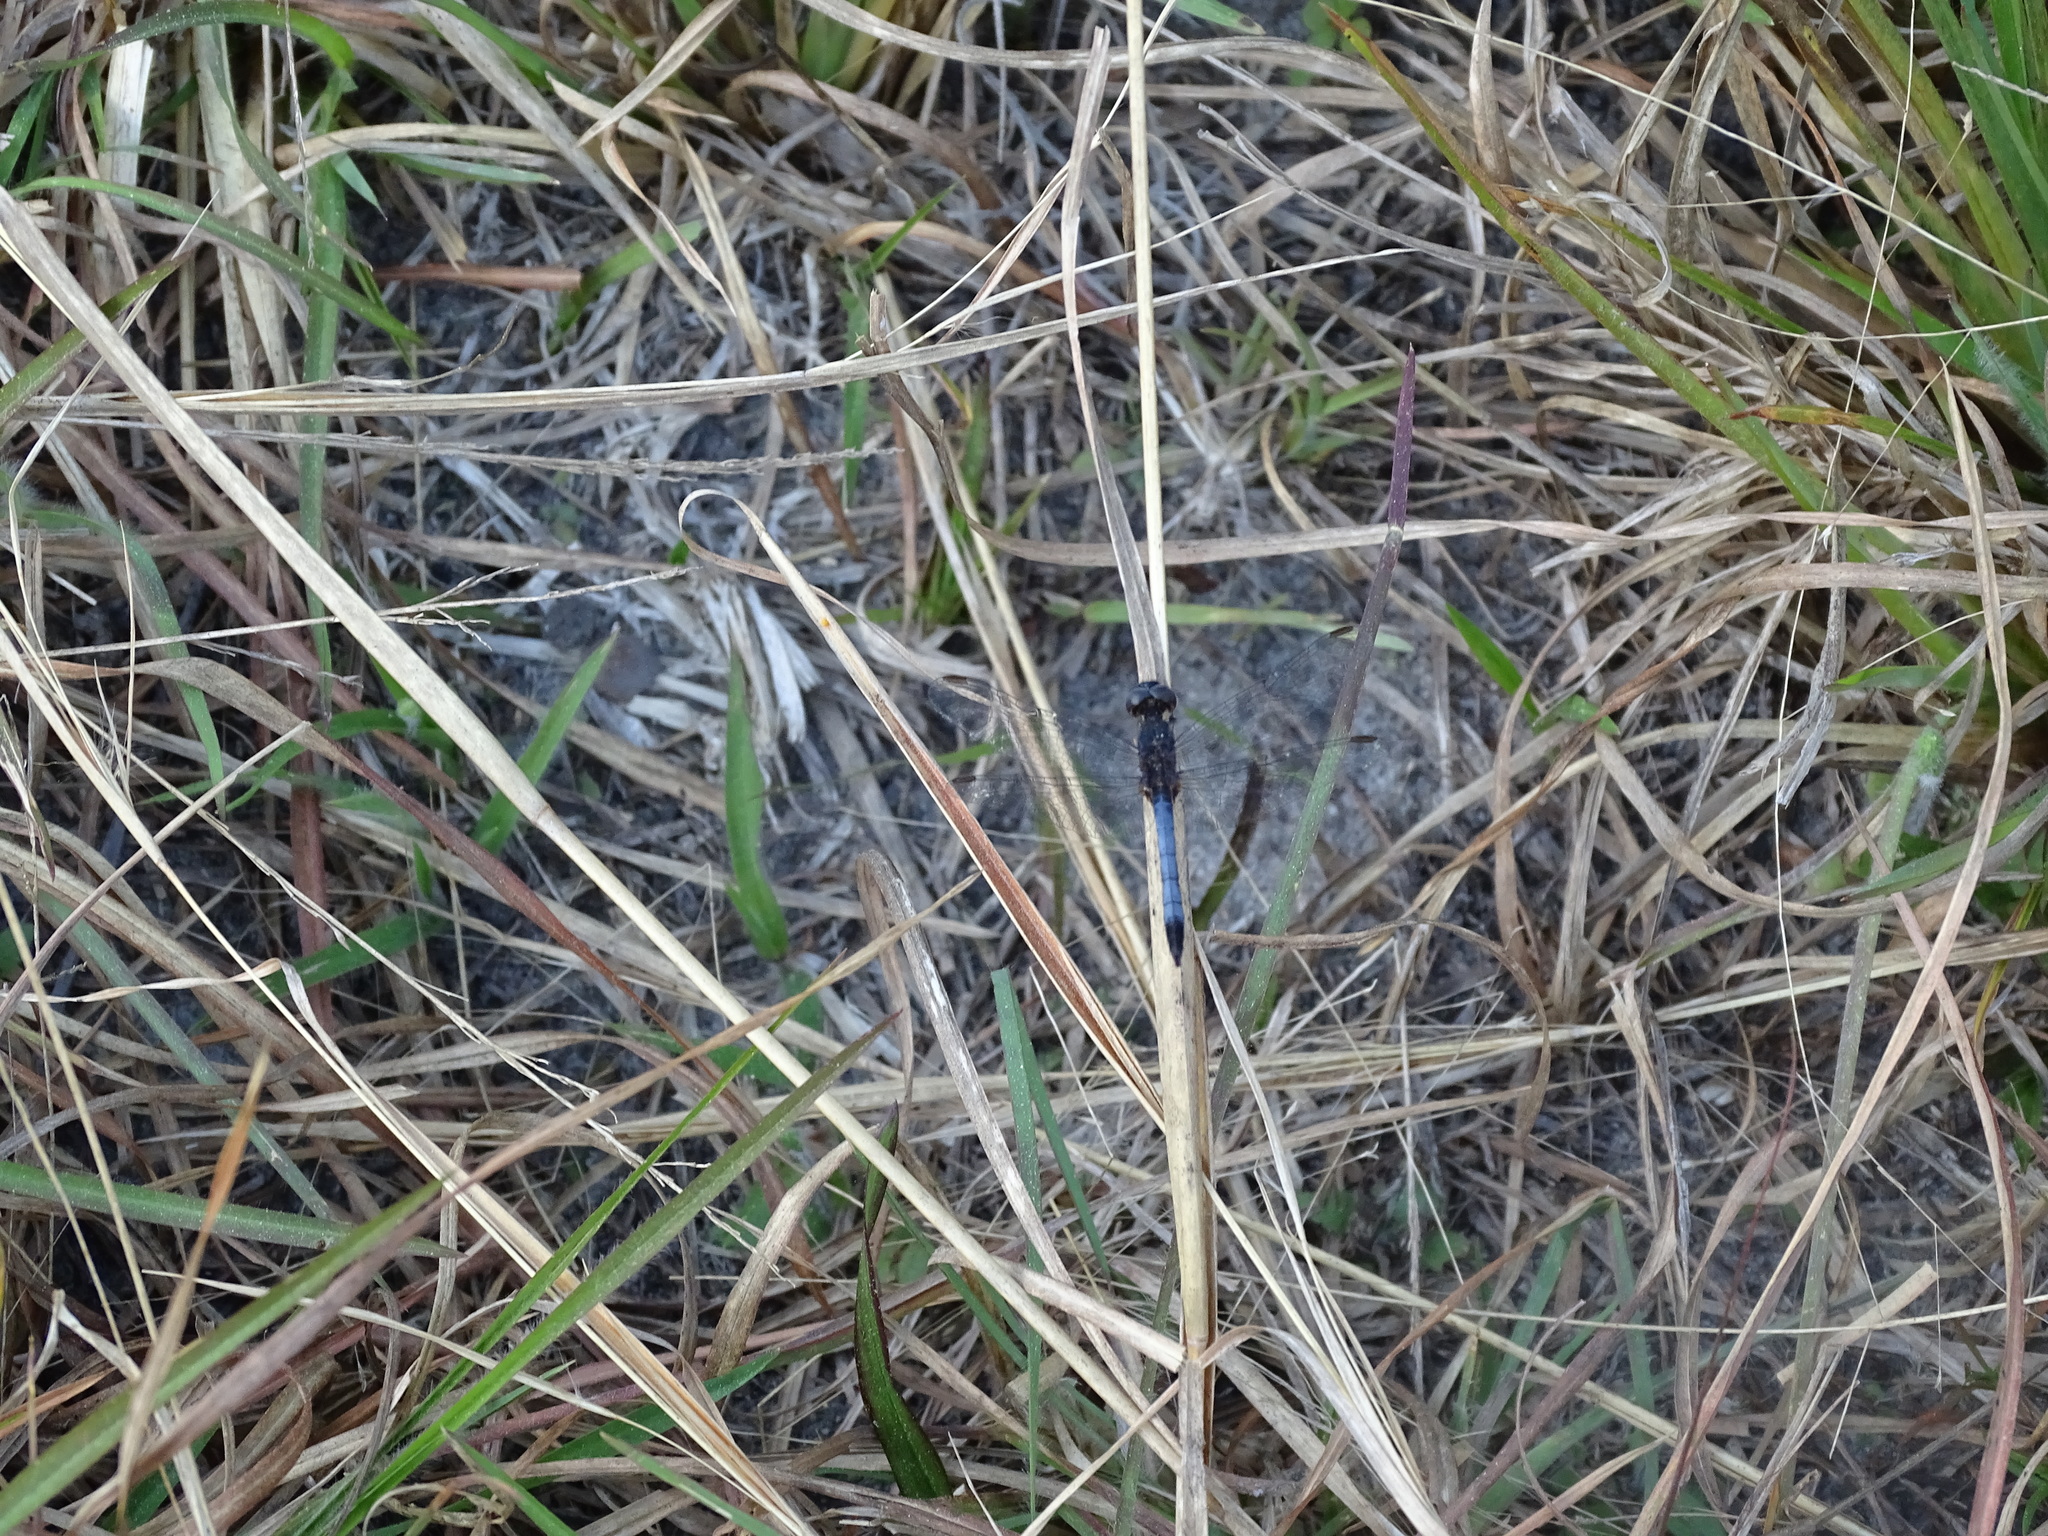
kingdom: Animalia
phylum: Arthropoda
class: Insecta
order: Odonata
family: Libellulidae
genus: Erythrodiplax
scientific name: Erythrodiplax minuscula
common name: Little blue dragonlet
